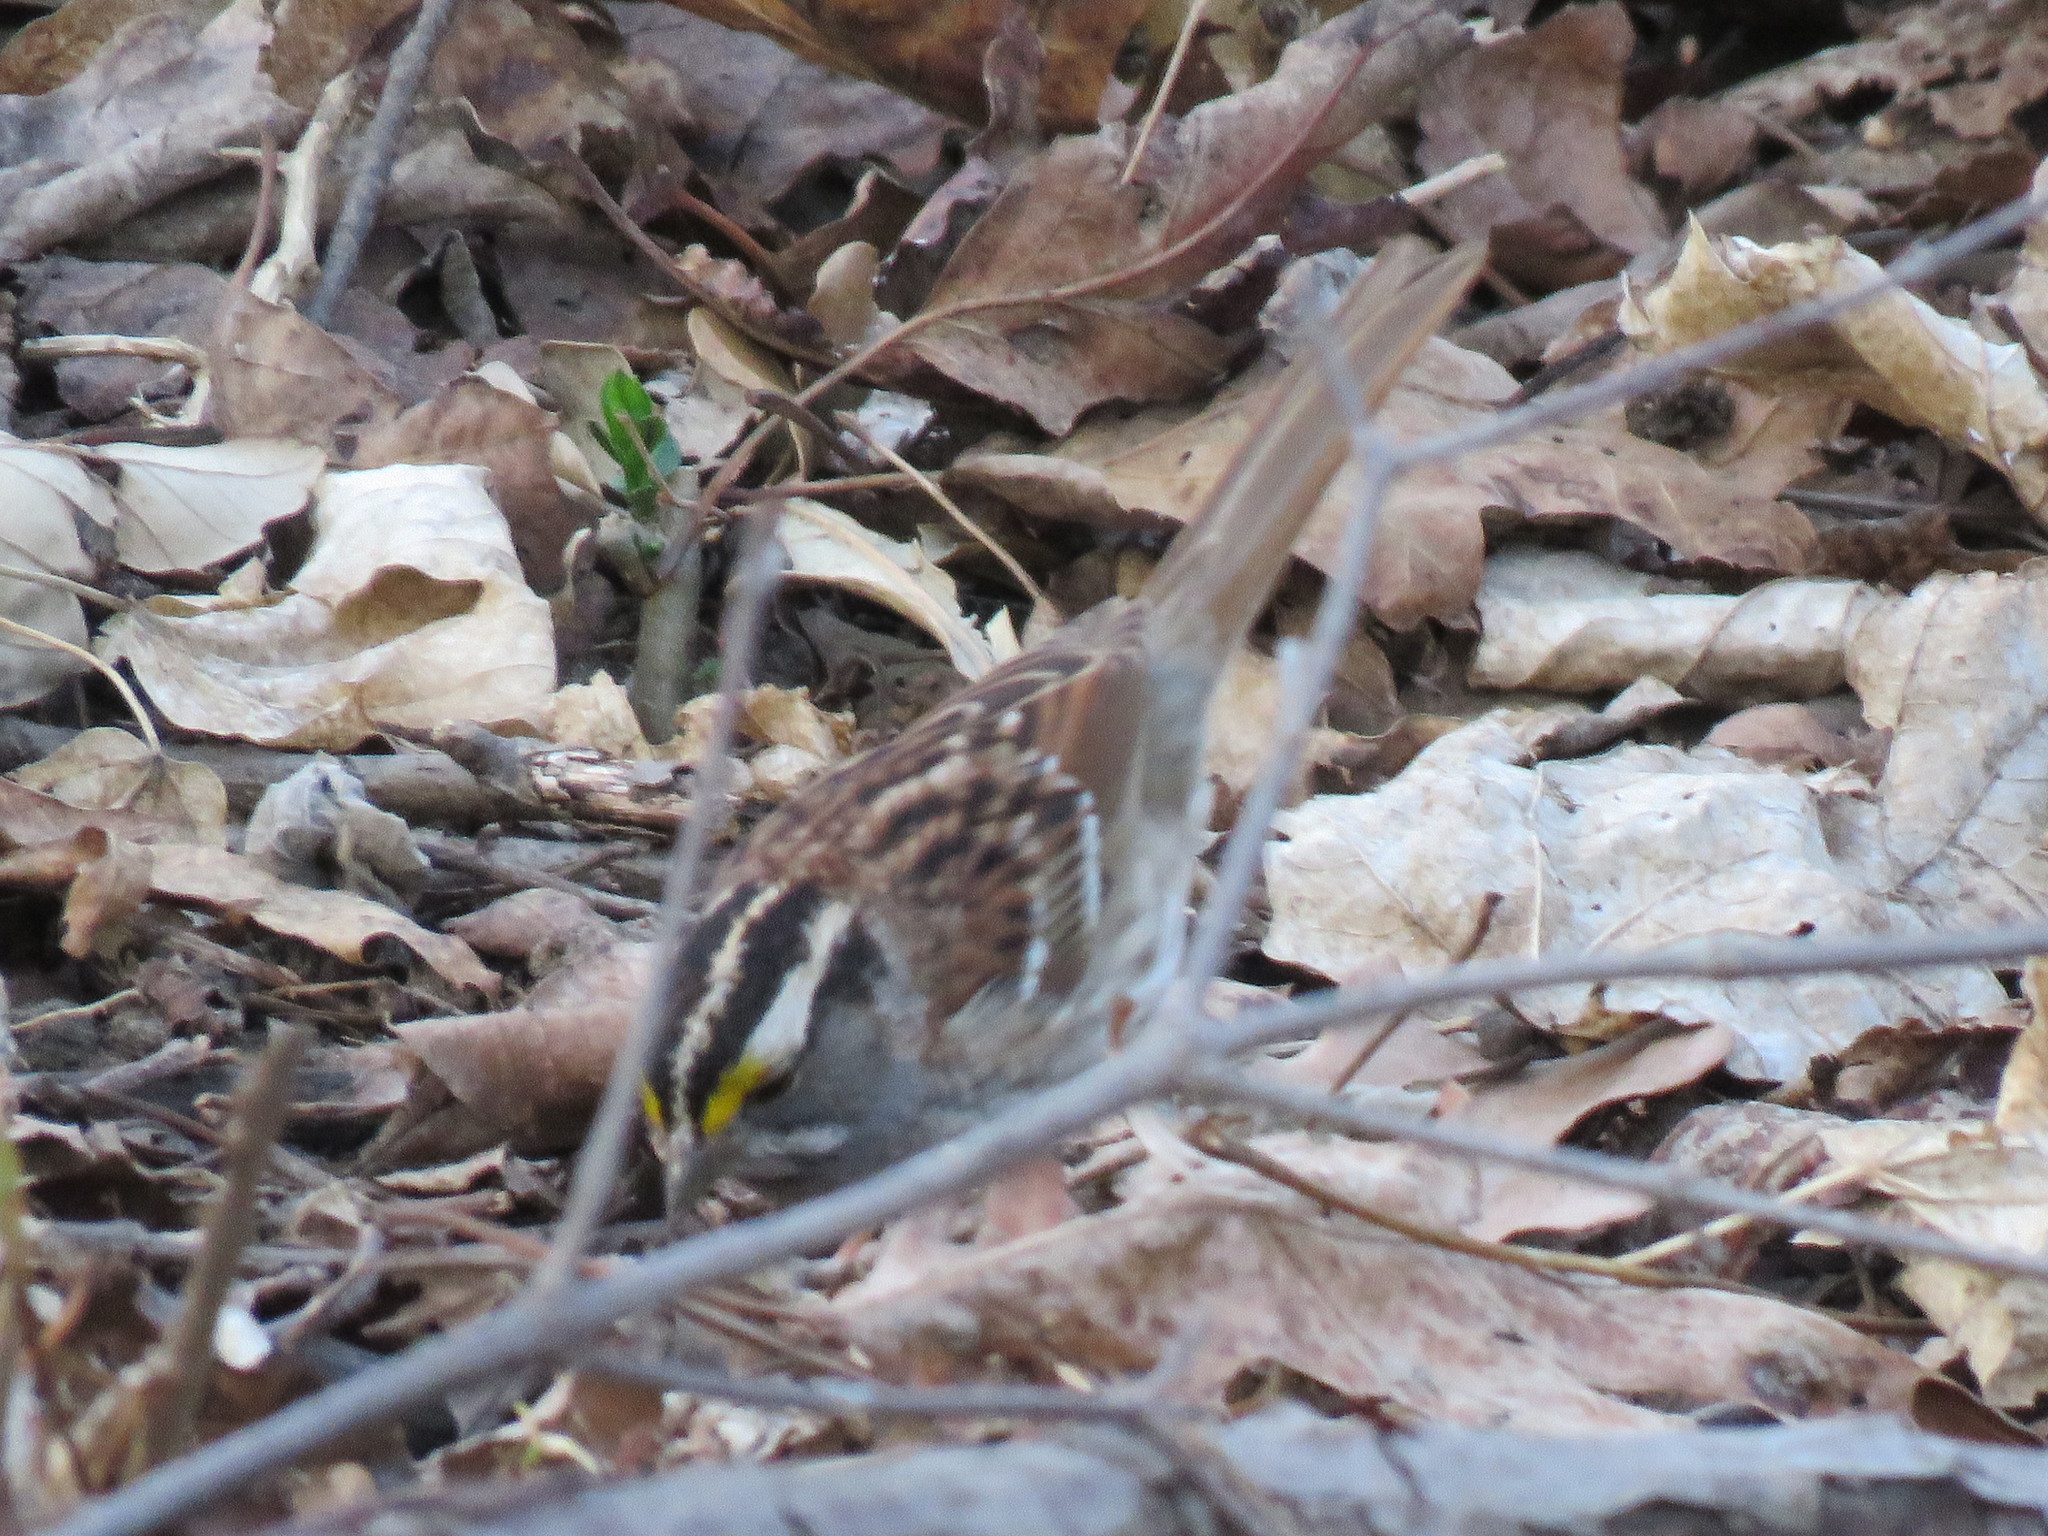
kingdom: Animalia
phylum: Chordata
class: Aves
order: Passeriformes
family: Passerellidae
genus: Zonotrichia
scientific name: Zonotrichia albicollis
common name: White-throated sparrow
